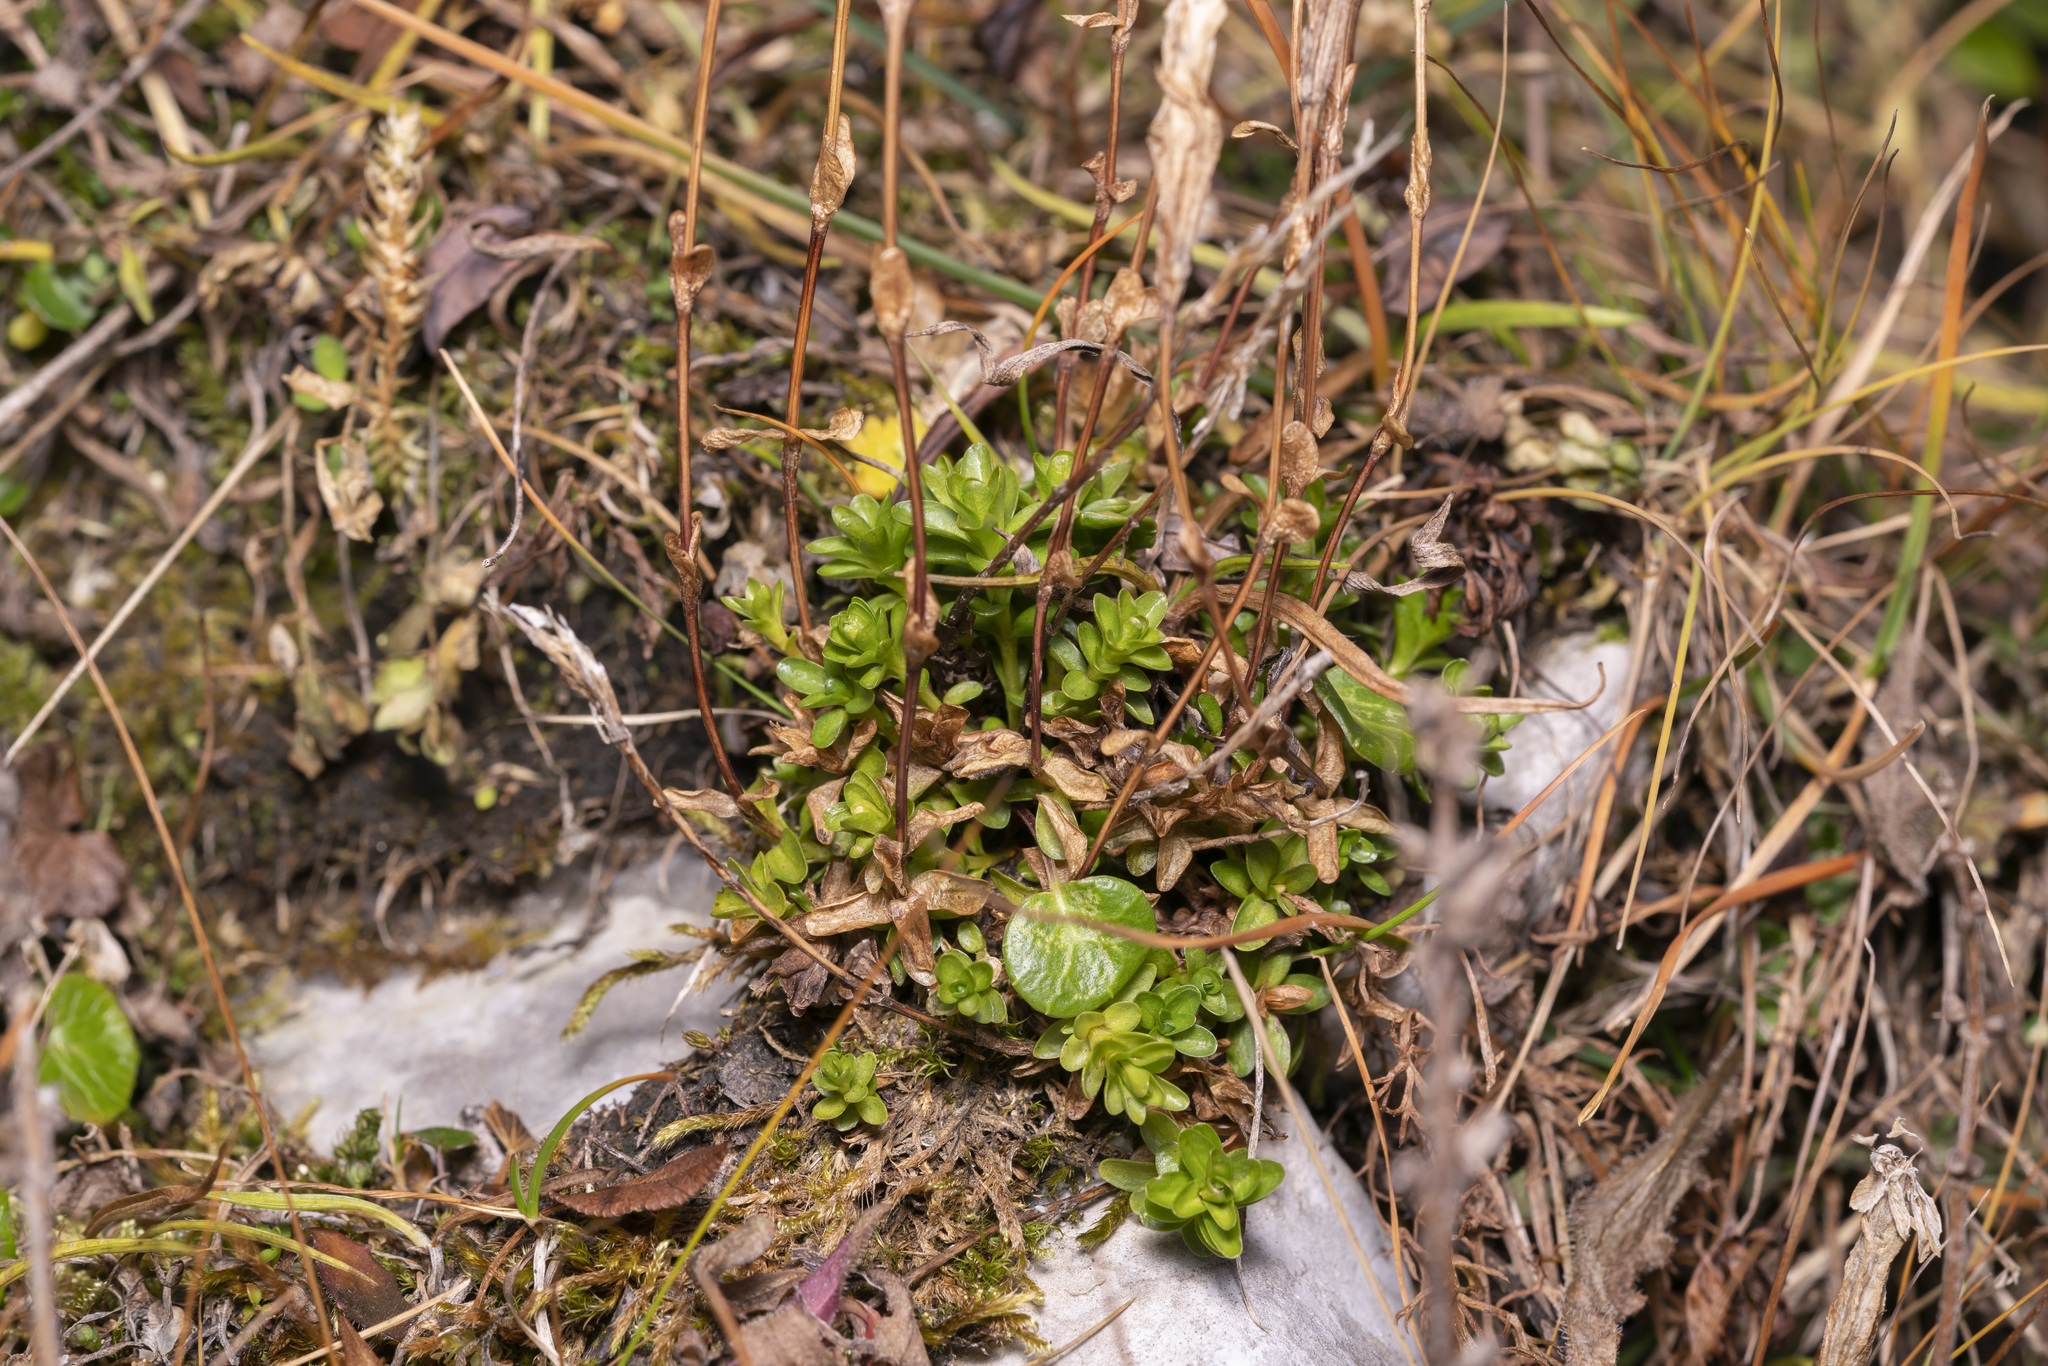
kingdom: Plantae
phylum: Tracheophyta
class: Magnoliopsida
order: Gentianales
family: Gentianaceae
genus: Gentiana
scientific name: Gentiana bavarica
